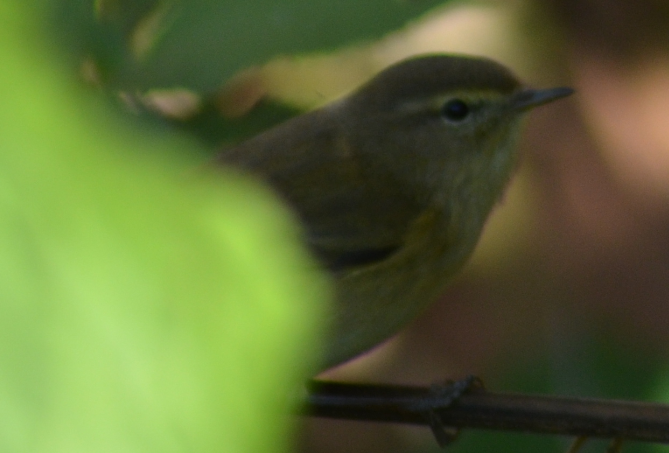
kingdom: Animalia
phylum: Chordata
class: Aves
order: Passeriformes
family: Phylloscopidae
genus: Phylloscopus
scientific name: Phylloscopus collybita
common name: Common chiffchaff
